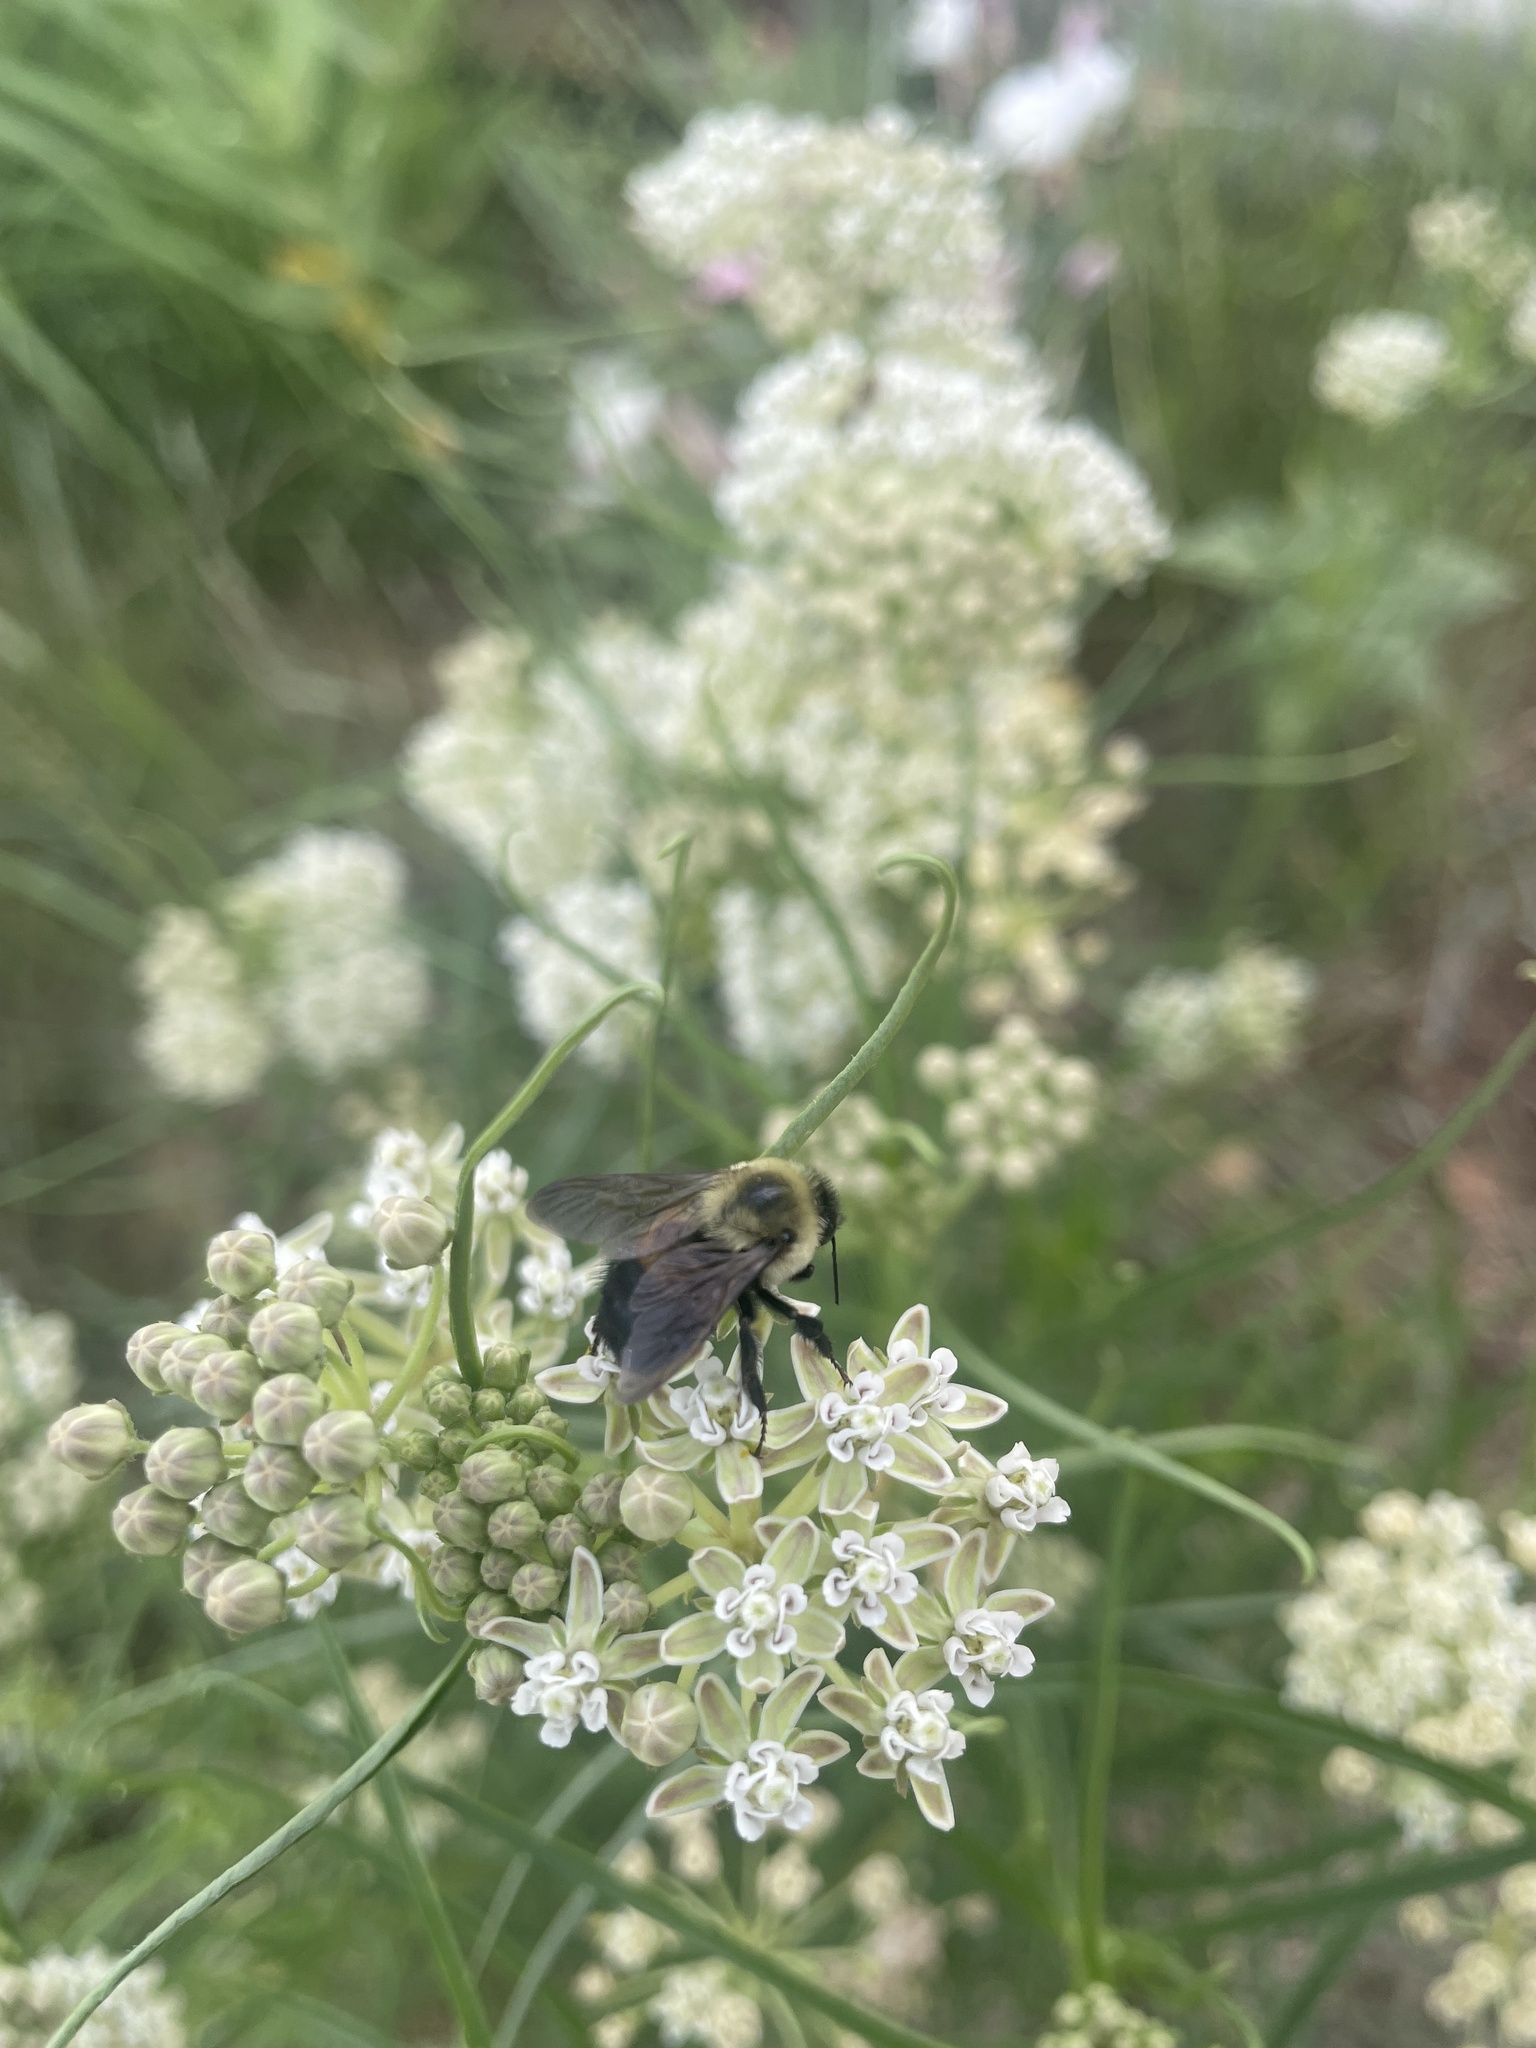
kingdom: Animalia
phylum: Arthropoda
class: Insecta
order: Hymenoptera
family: Apidae
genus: Bombus
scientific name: Bombus griseocollis
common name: Brown-belted bumble bee
